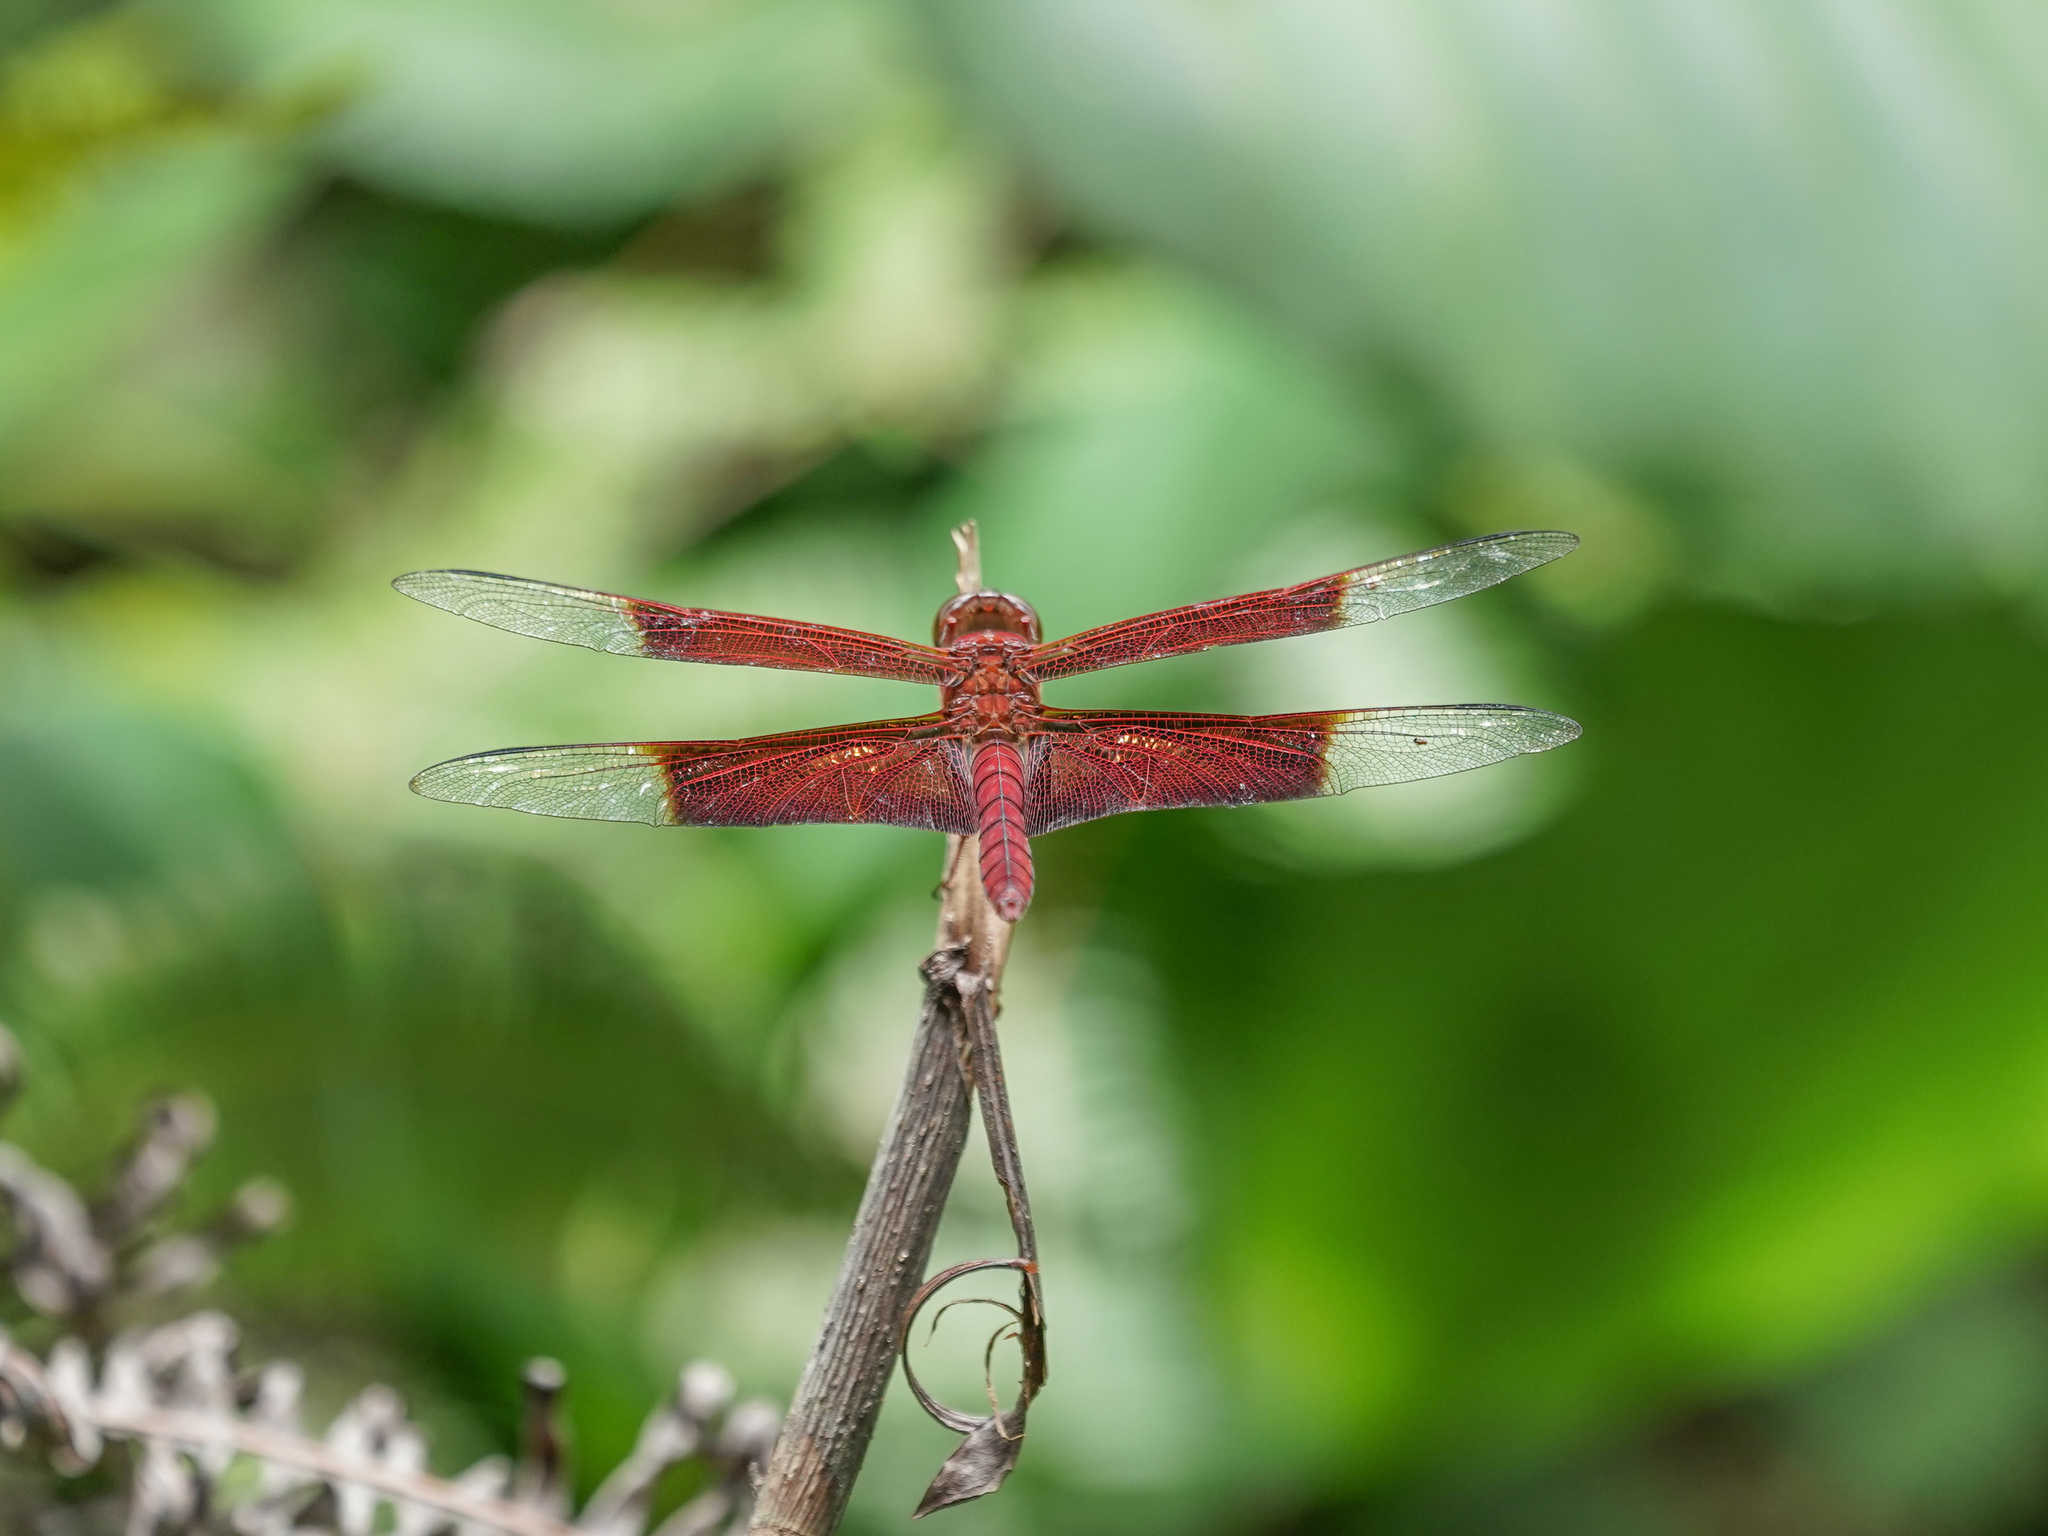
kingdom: Animalia
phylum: Arthropoda
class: Insecta
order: Odonata
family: Libellulidae
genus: Camacinia
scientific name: Camacinia gigantea
